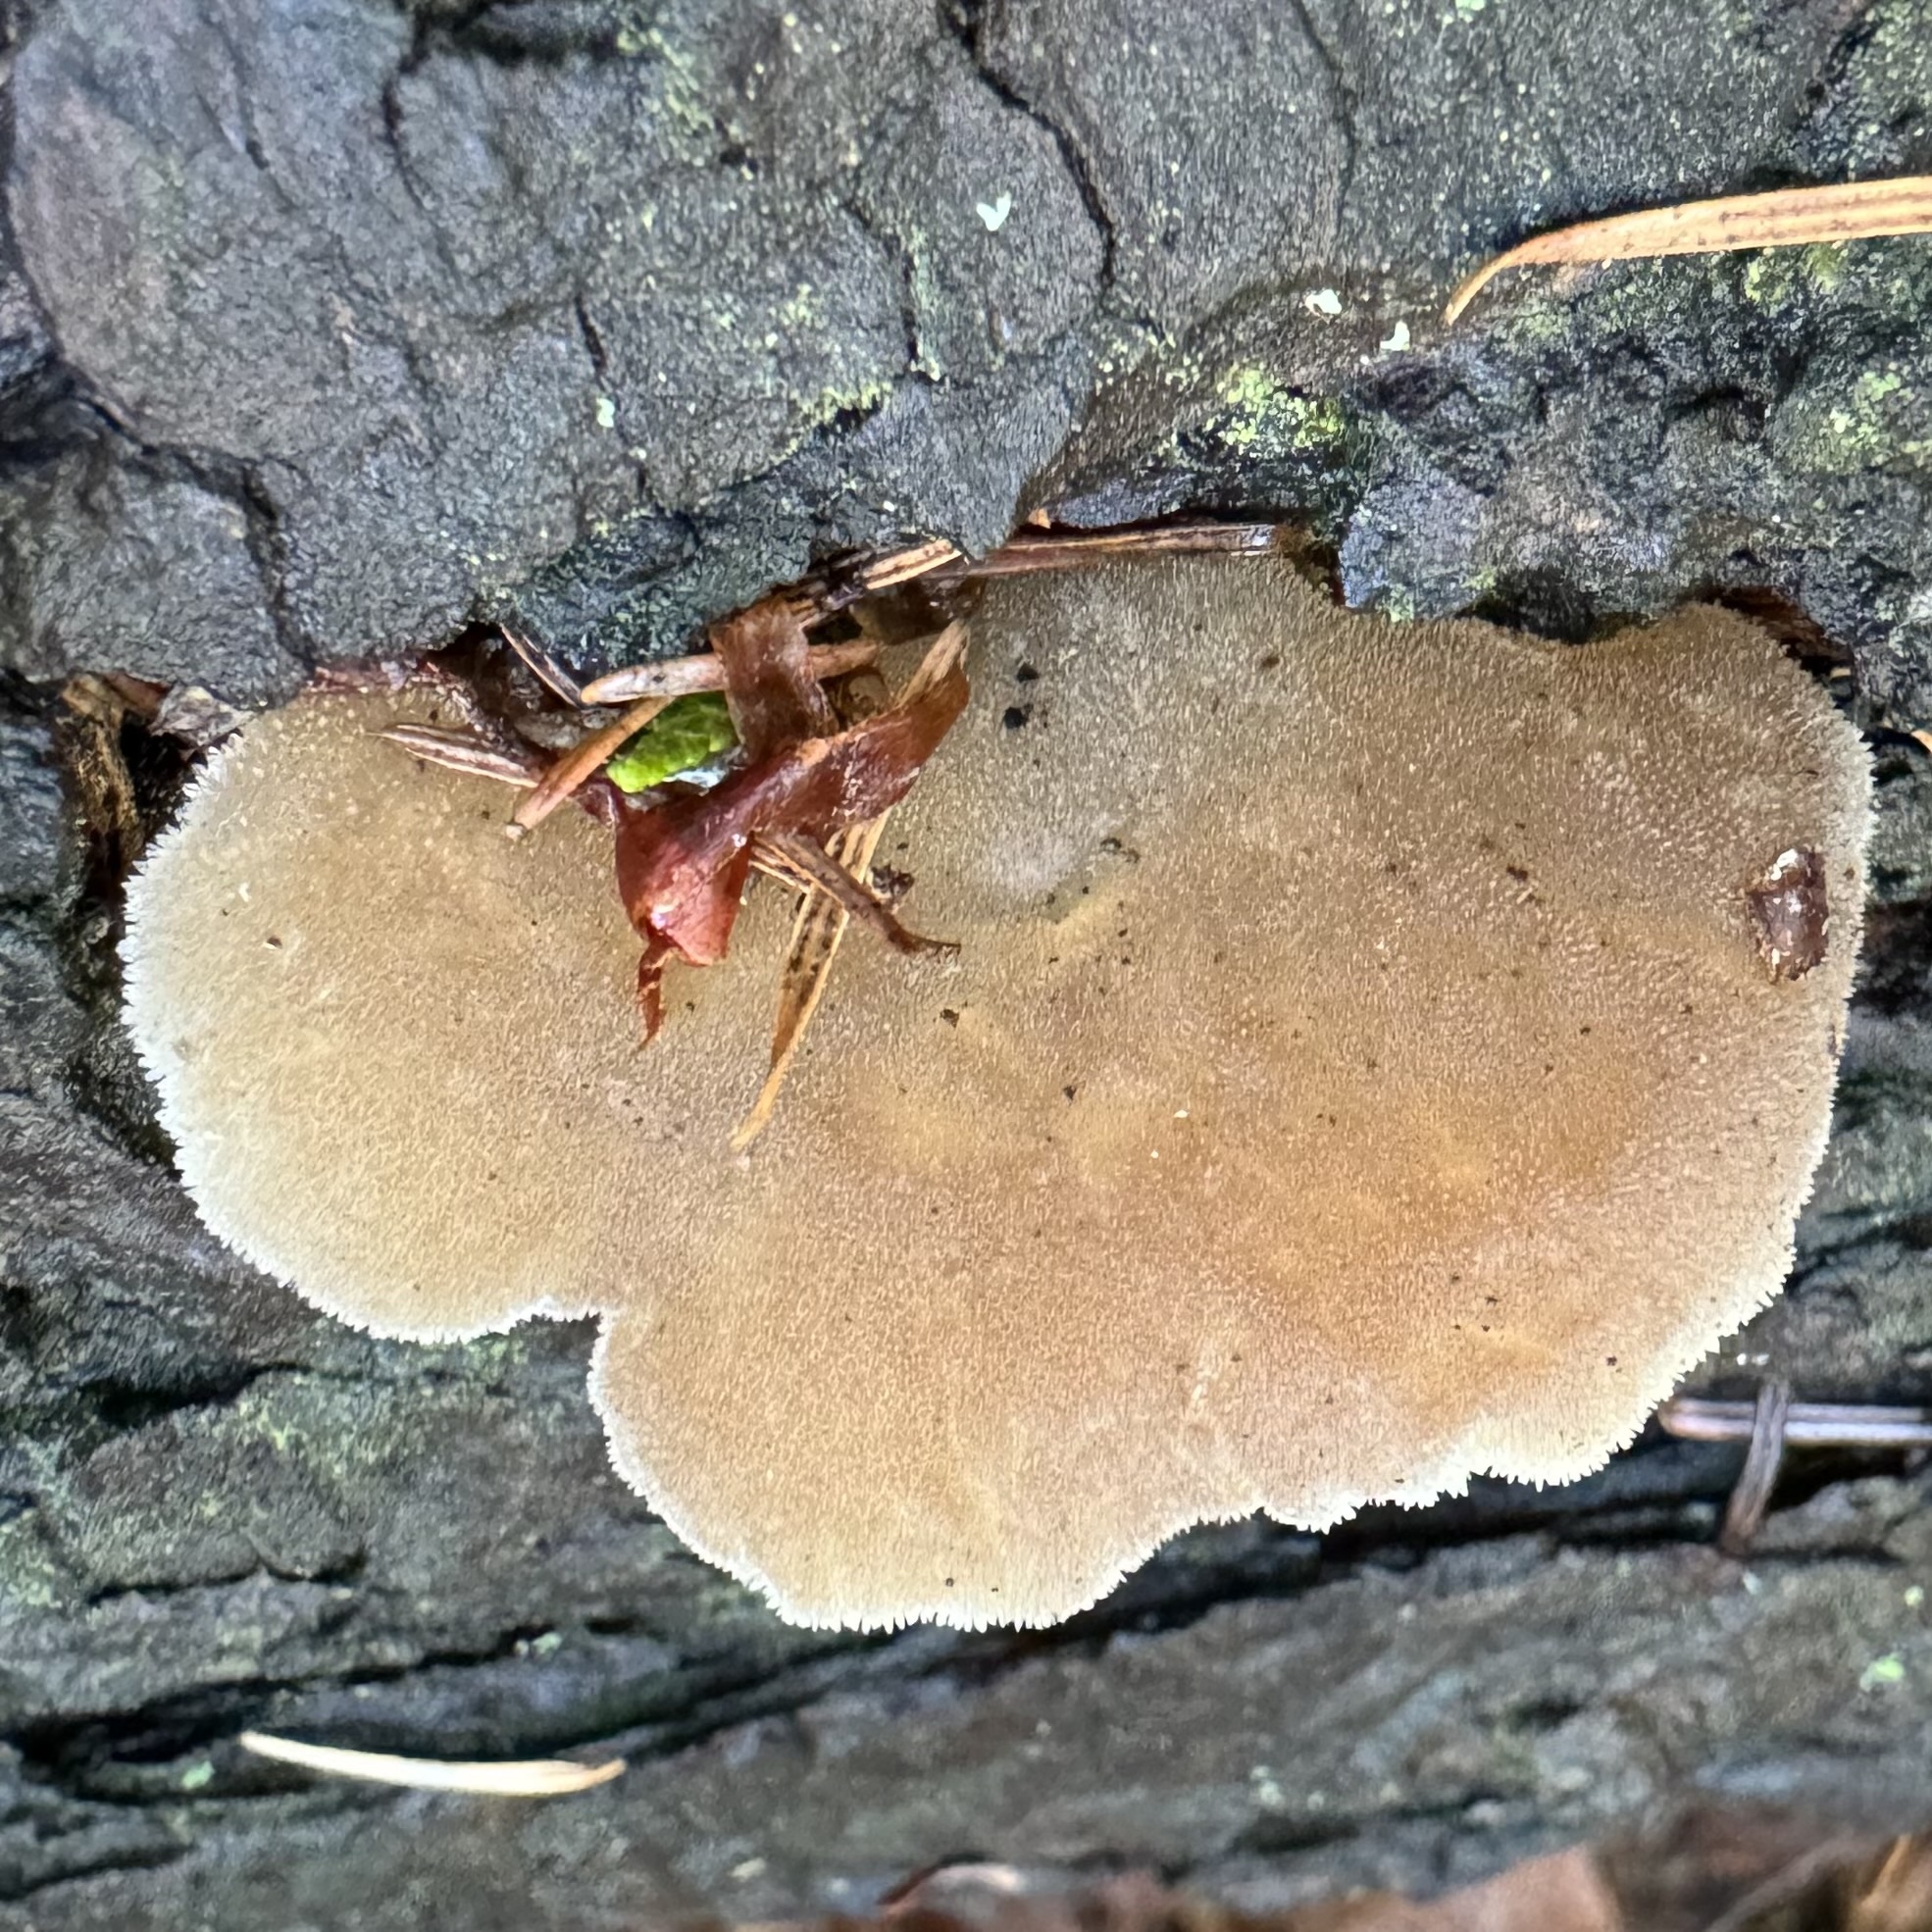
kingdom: Fungi
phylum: Basidiomycota
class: Agaricomycetes
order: Auriculariales
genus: Pseudohydnum
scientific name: Pseudohydnum gelatinosum
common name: Jelly tongue
